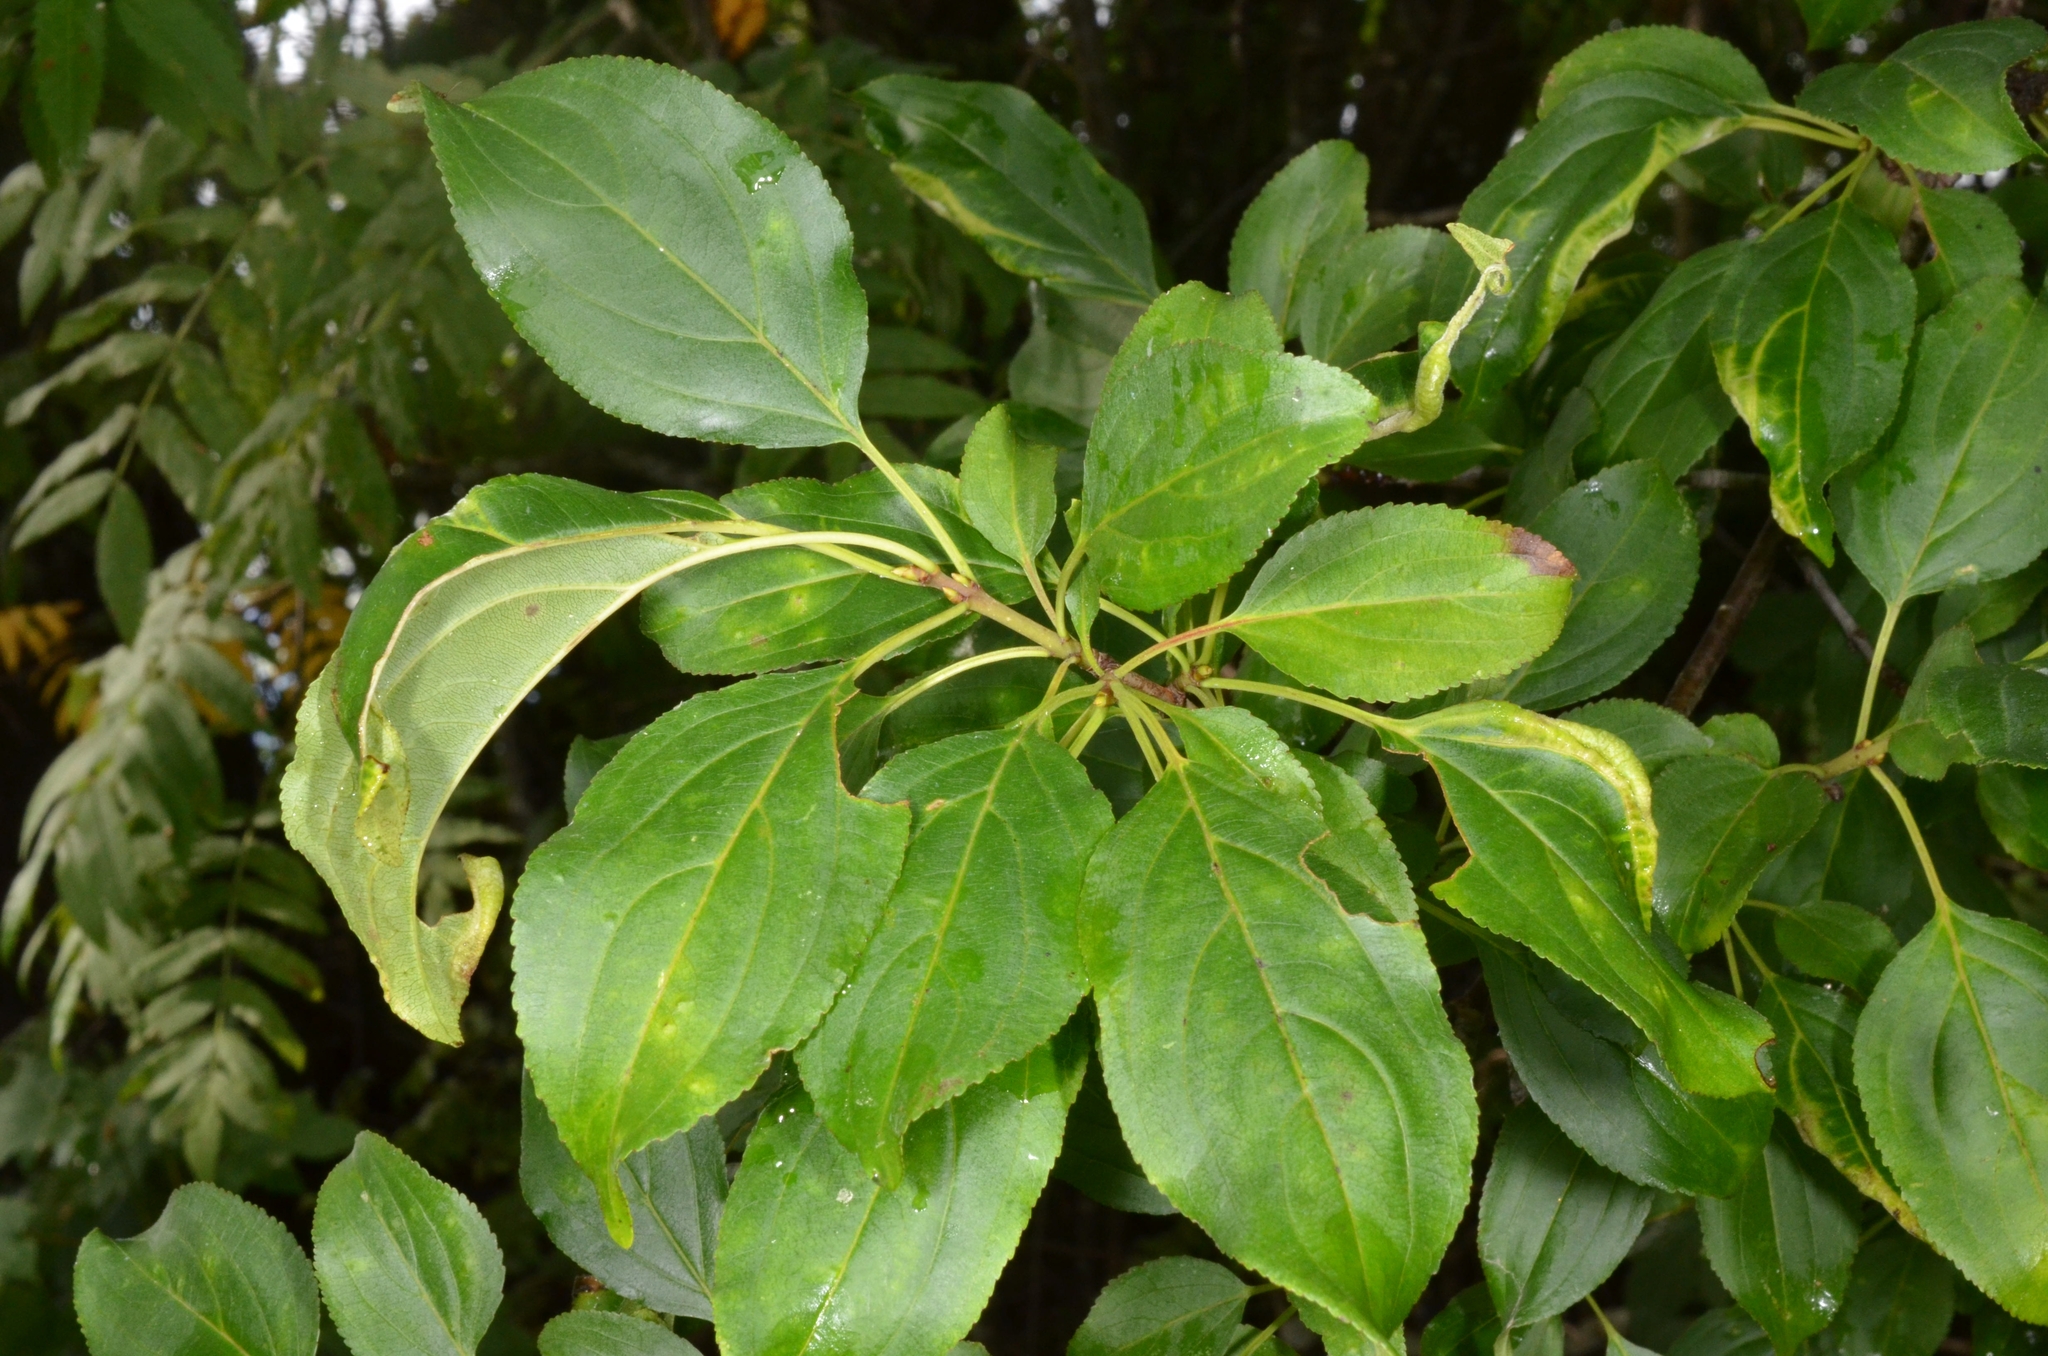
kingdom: Plantae
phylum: Tracheophyta
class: Magnoliopsida
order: Rosales
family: Rhamnaceae
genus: Rhamnus
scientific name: Rhamnus cathartica
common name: Common buckthorn
